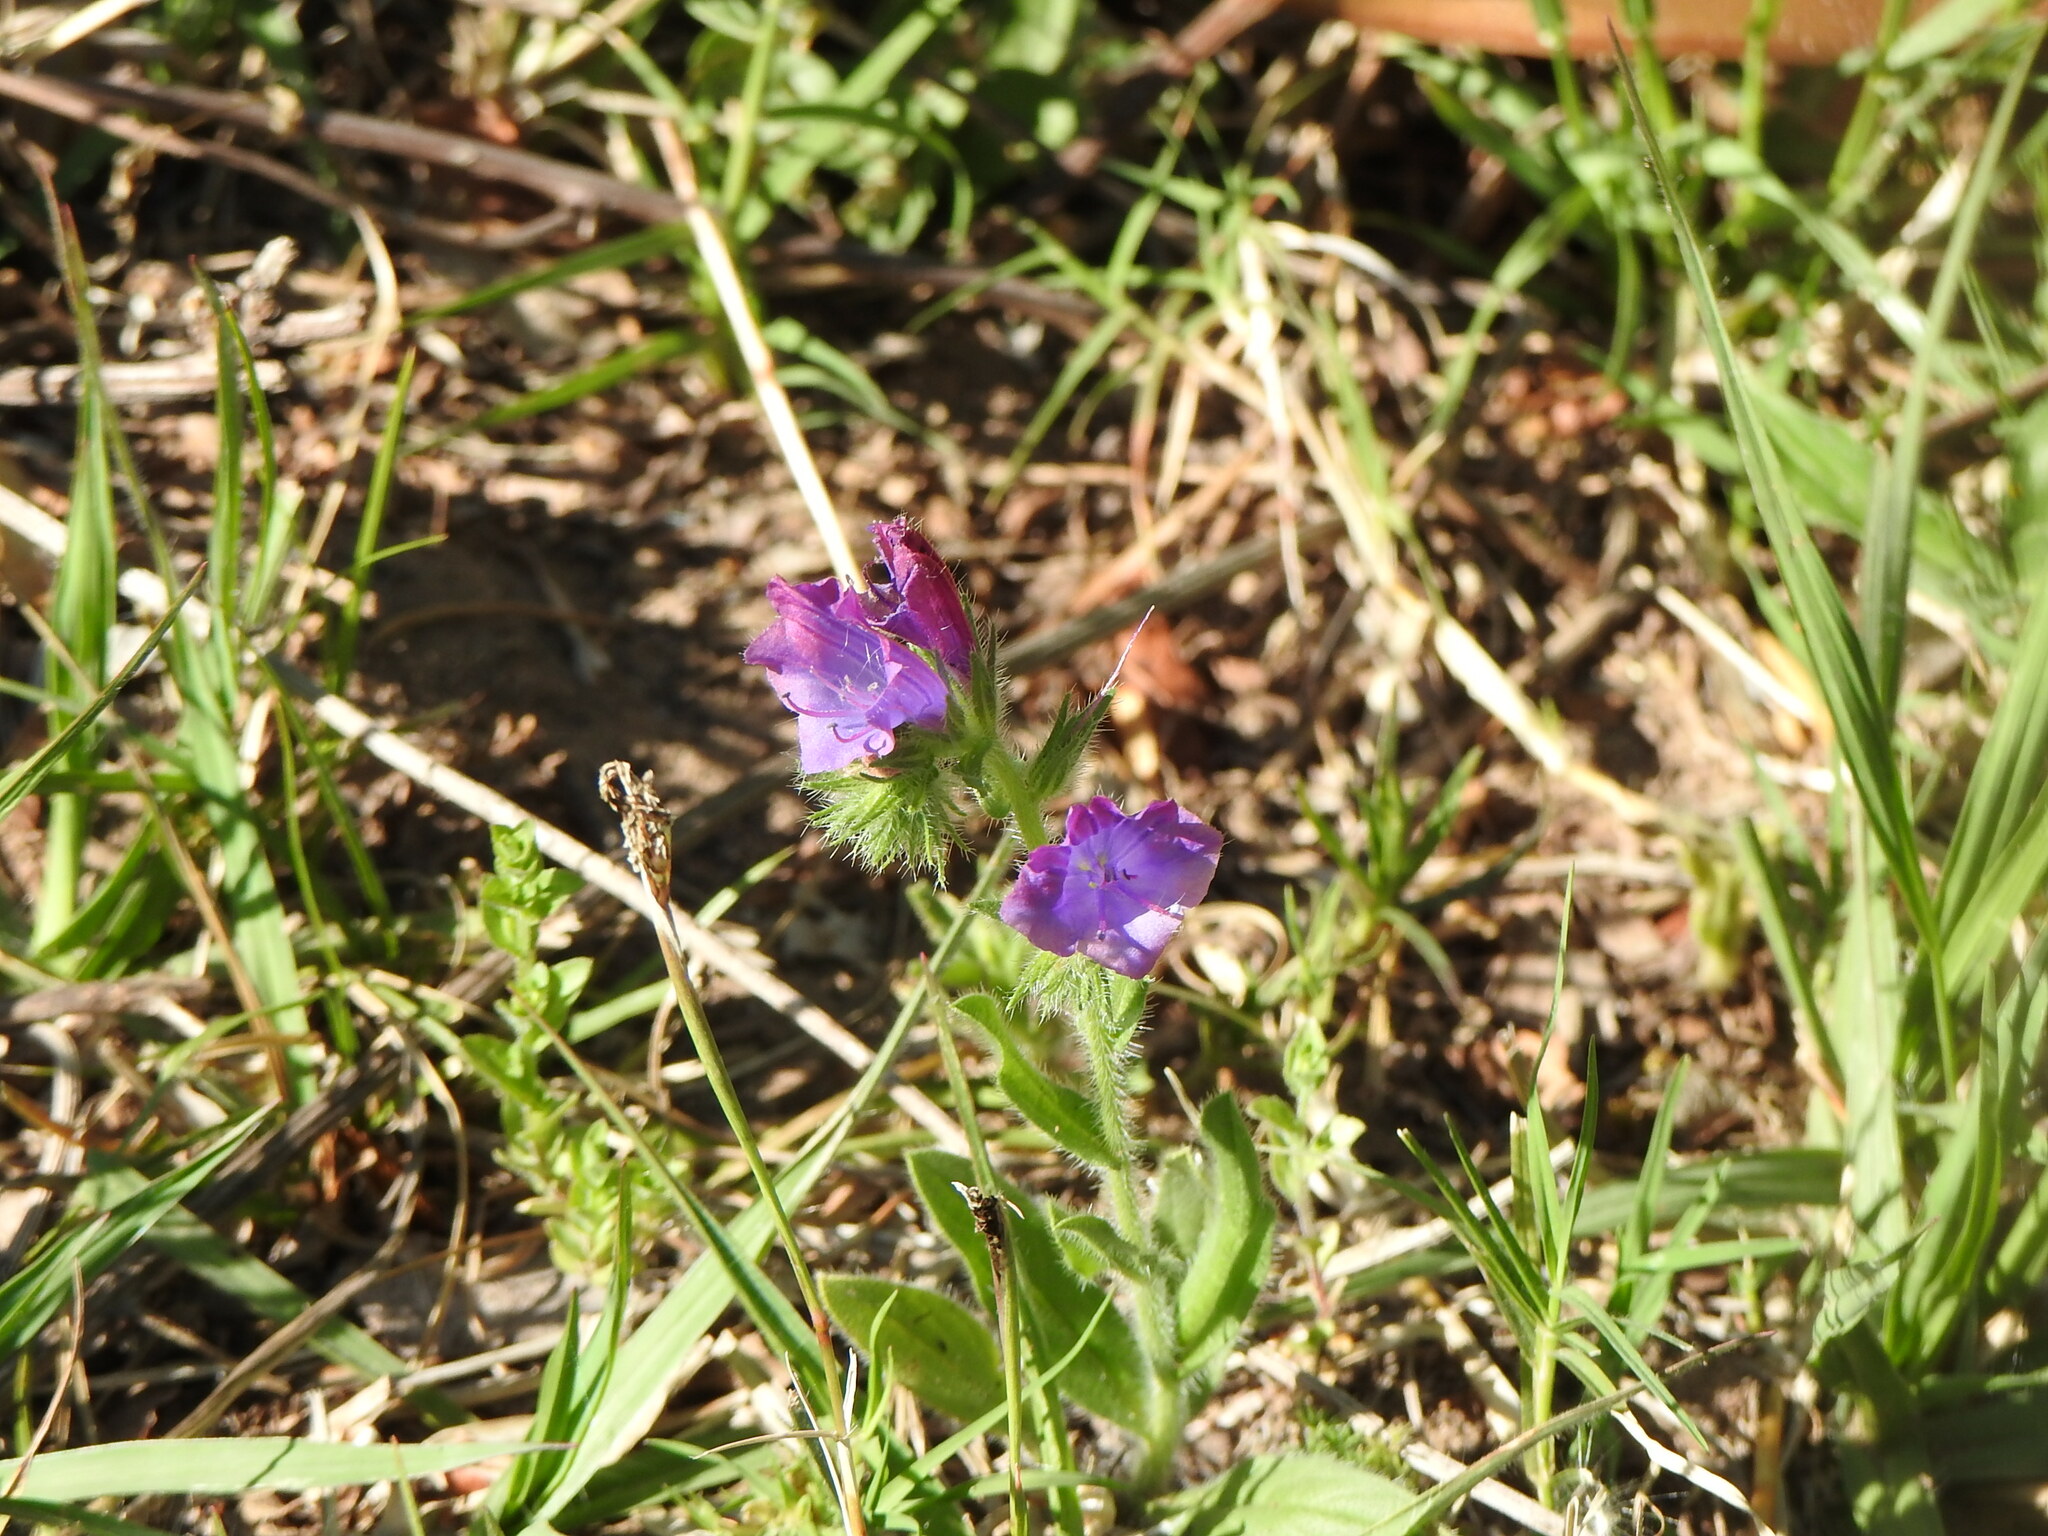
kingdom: Plantae
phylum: Tracheophyta
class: Magnoliopsida
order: Boraginales
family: Boraginaceae
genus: Echium
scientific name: Echium plantagineum
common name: Purple viper's-bugloss
